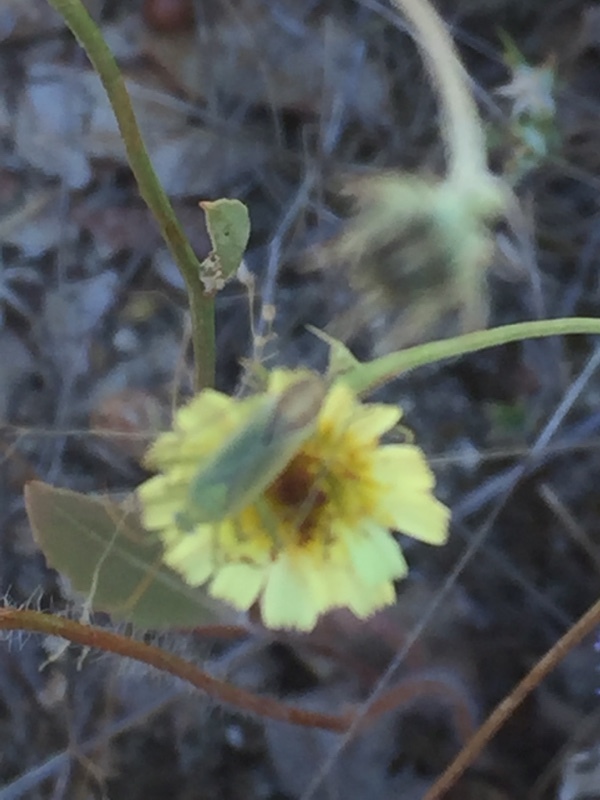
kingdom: Plantae
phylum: Tracheophyta
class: Magnoliopsida
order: Asterales
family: Asteraceae
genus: Tolpis
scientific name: Tolpis barbata
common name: Yellow hawkweed
